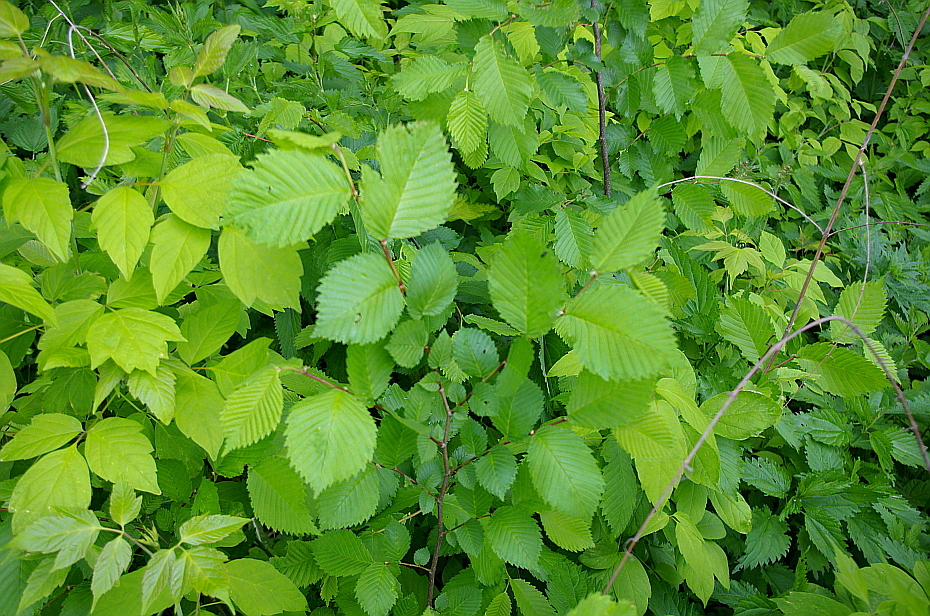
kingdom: Plantae
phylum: Tracheophyta
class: Magnoliopsida
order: Rosales
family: Ulmaceae
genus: Ulmus
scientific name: Ulmus laevis
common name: European white-elm
